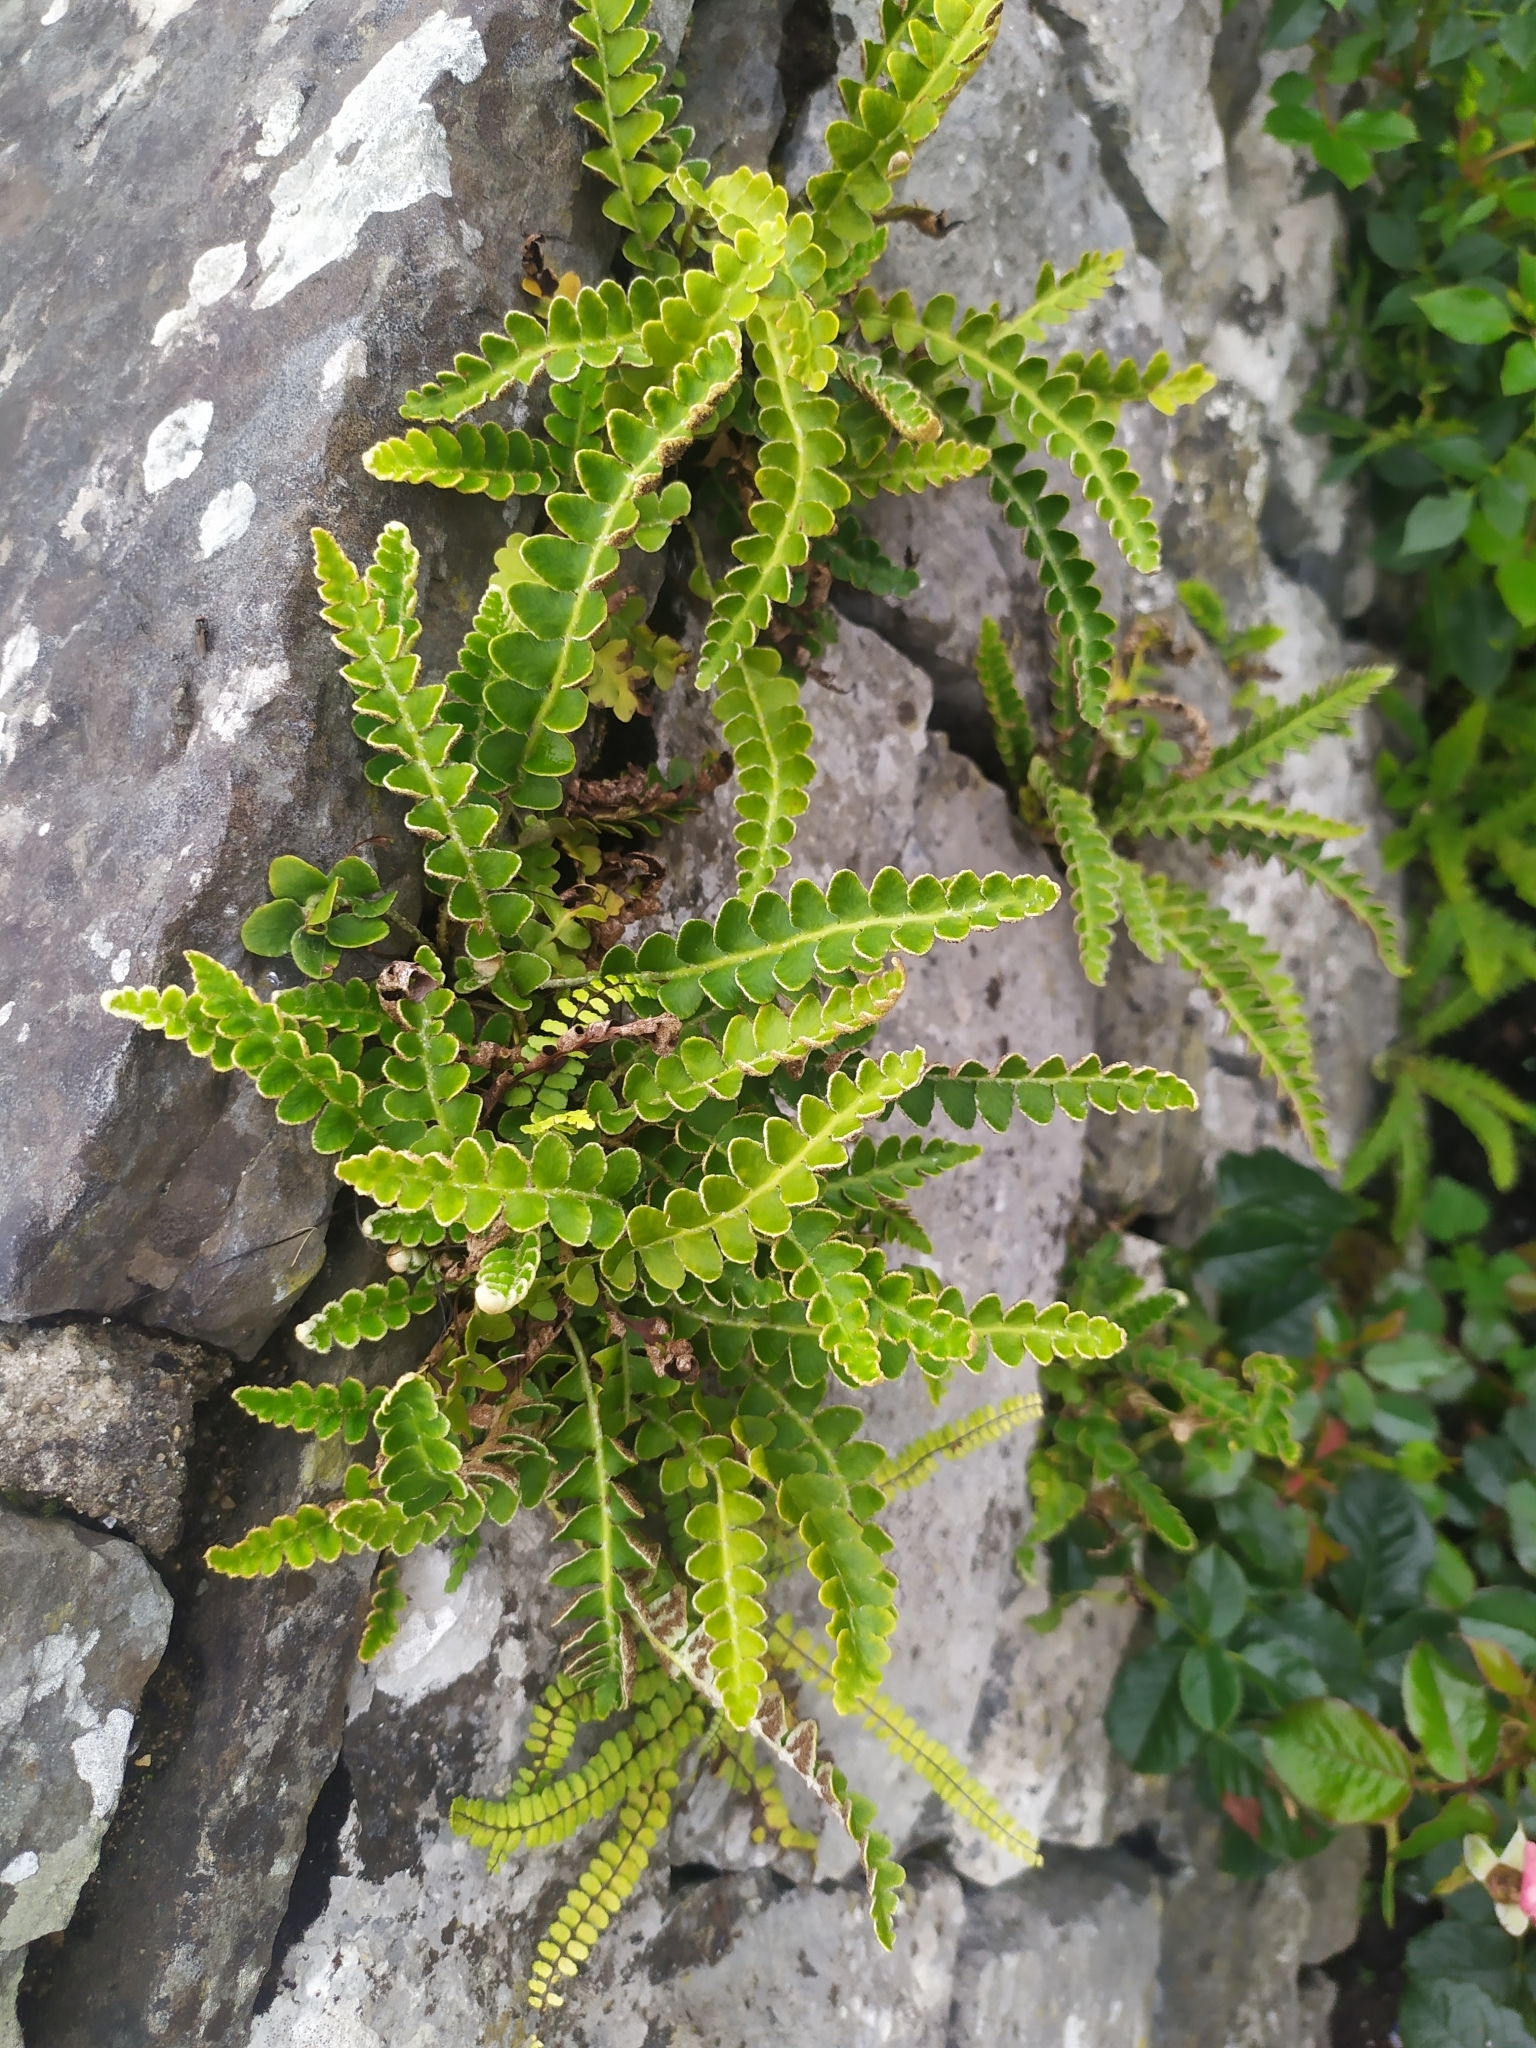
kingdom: Plantae
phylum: Tracheophyta
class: Polypodiopsida
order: Polypodiales
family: Aspleniaceae
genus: Asplenium
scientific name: Asplenium ceterach
